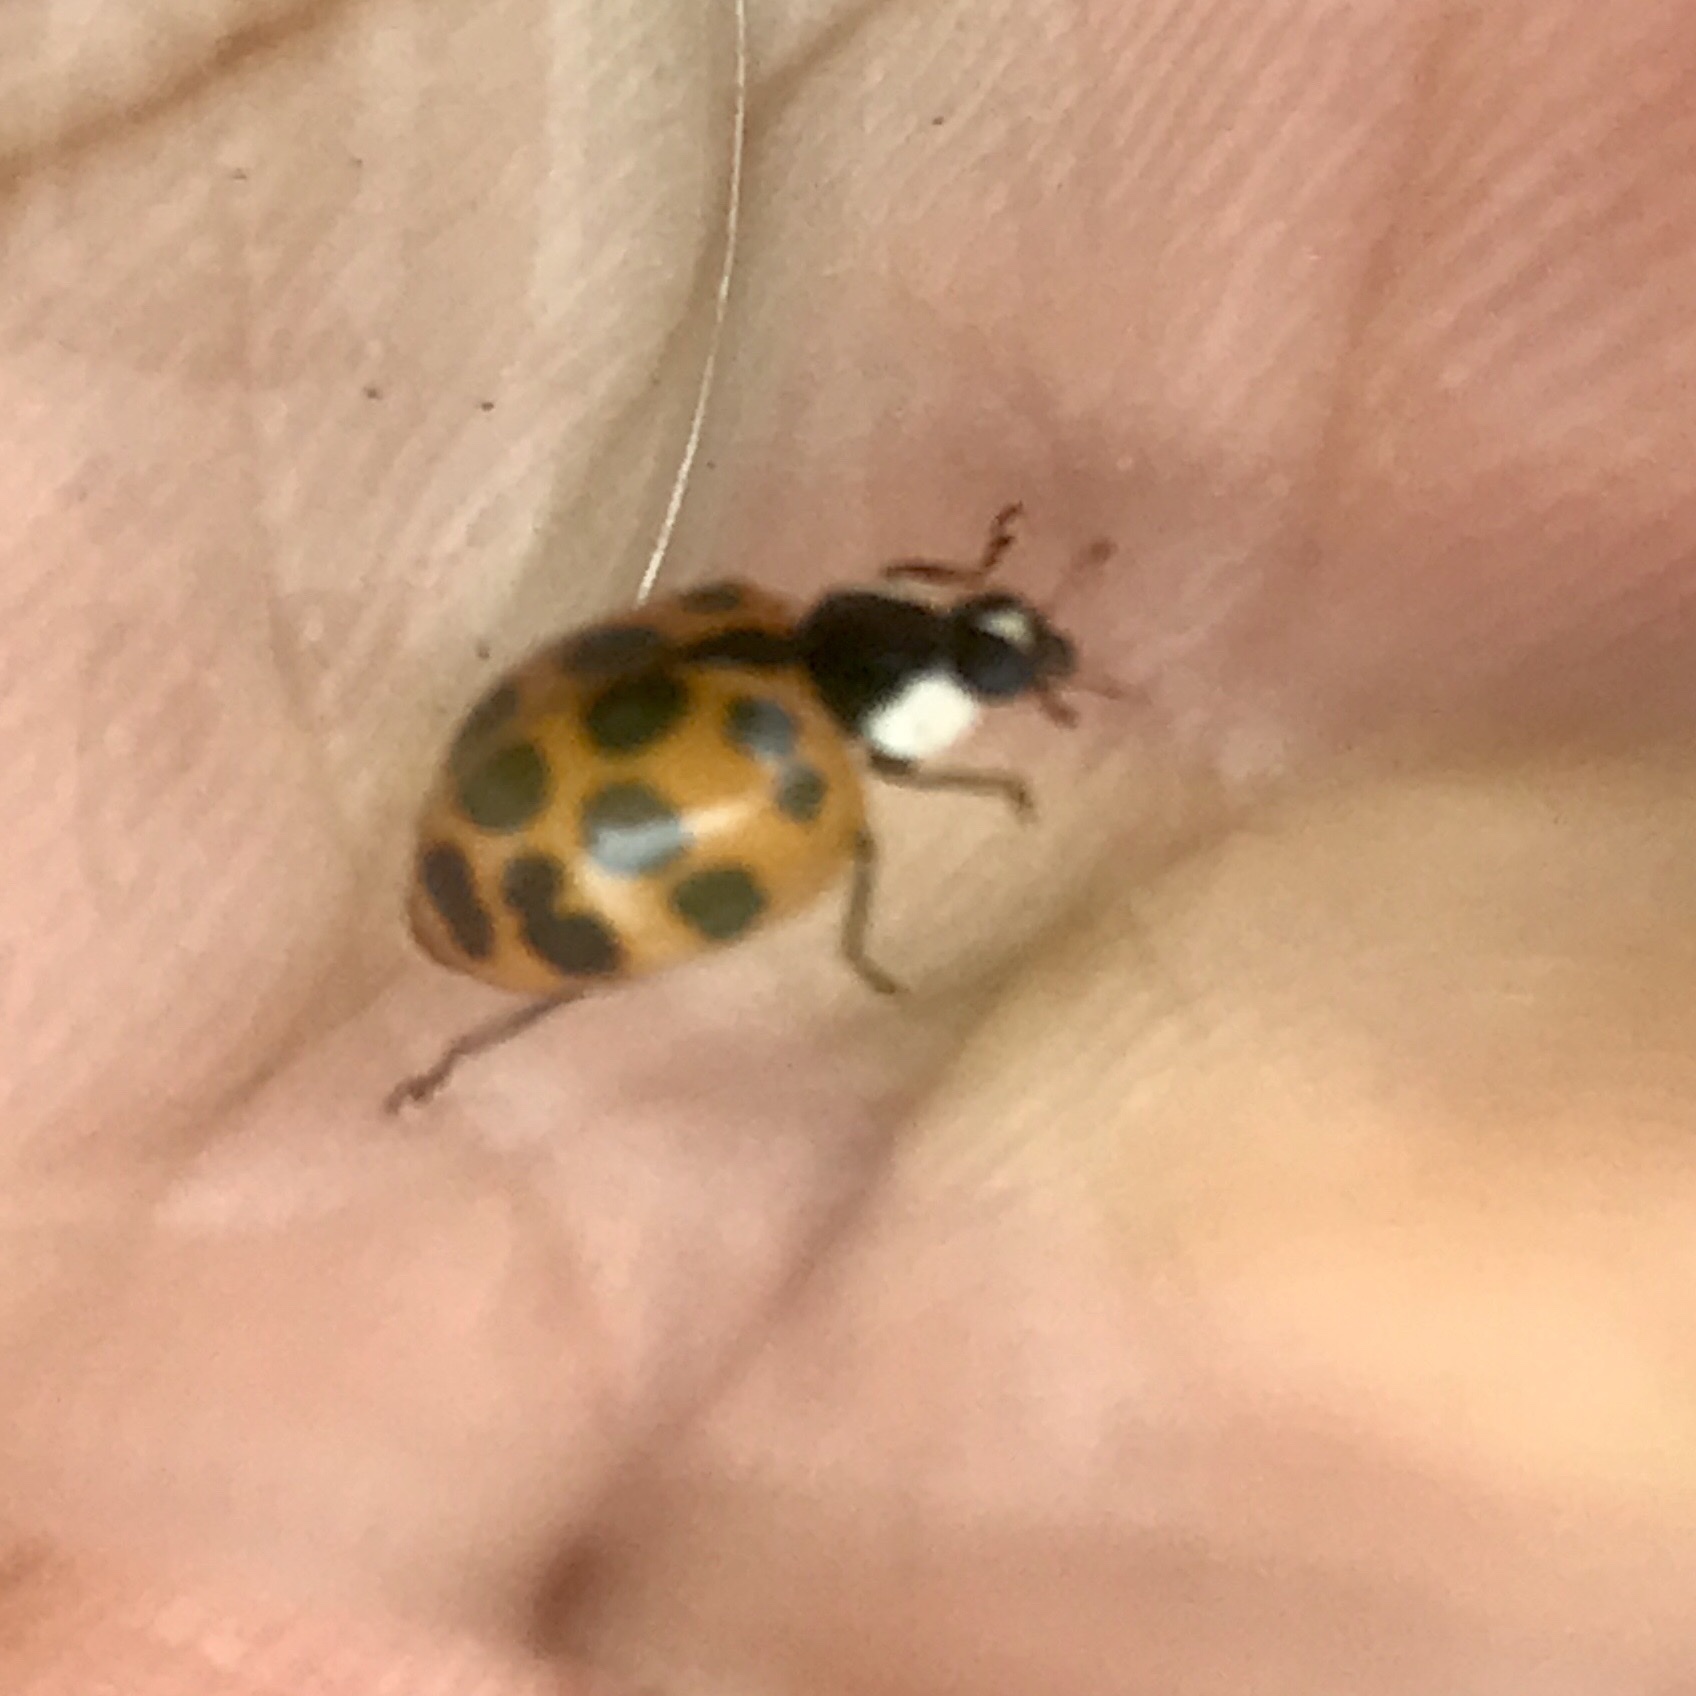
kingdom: Animalia
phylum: Arthropoda
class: Insecta
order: Coleoptera
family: Coccinellidae
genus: Harmonia
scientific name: Harmonia axyridis
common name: Harlequin ladybird
